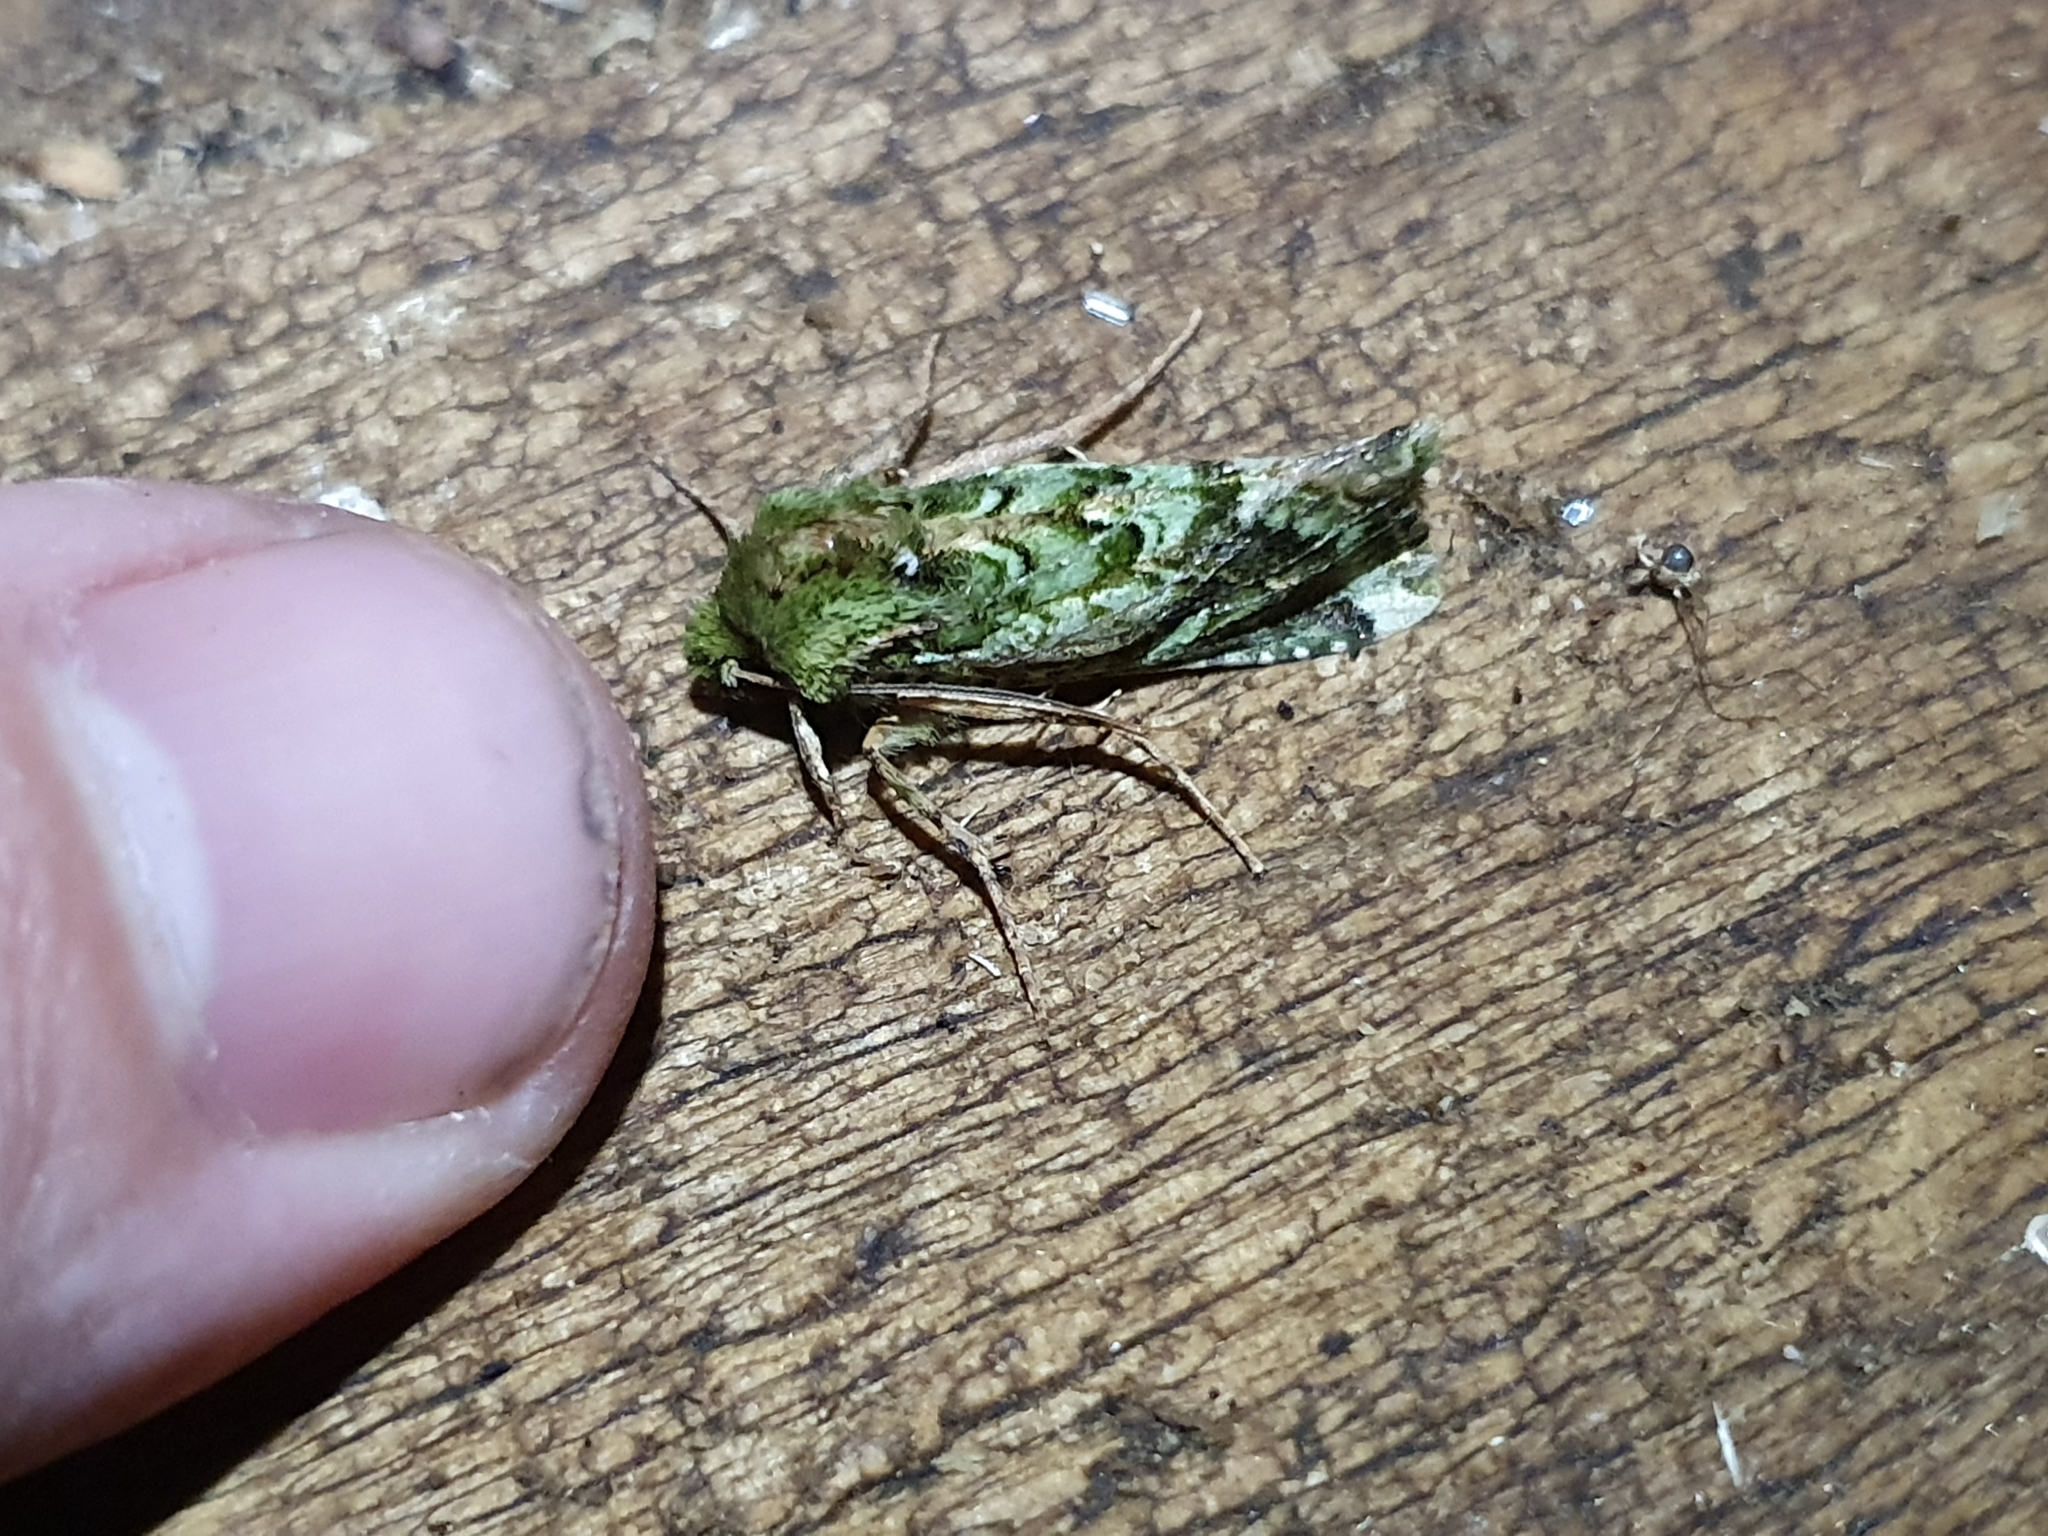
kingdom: Animalia
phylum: Arthropoda
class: Insecta
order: Lepidoptera
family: Noctuidae
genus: Feredayia
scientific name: Feredayia grammosa
